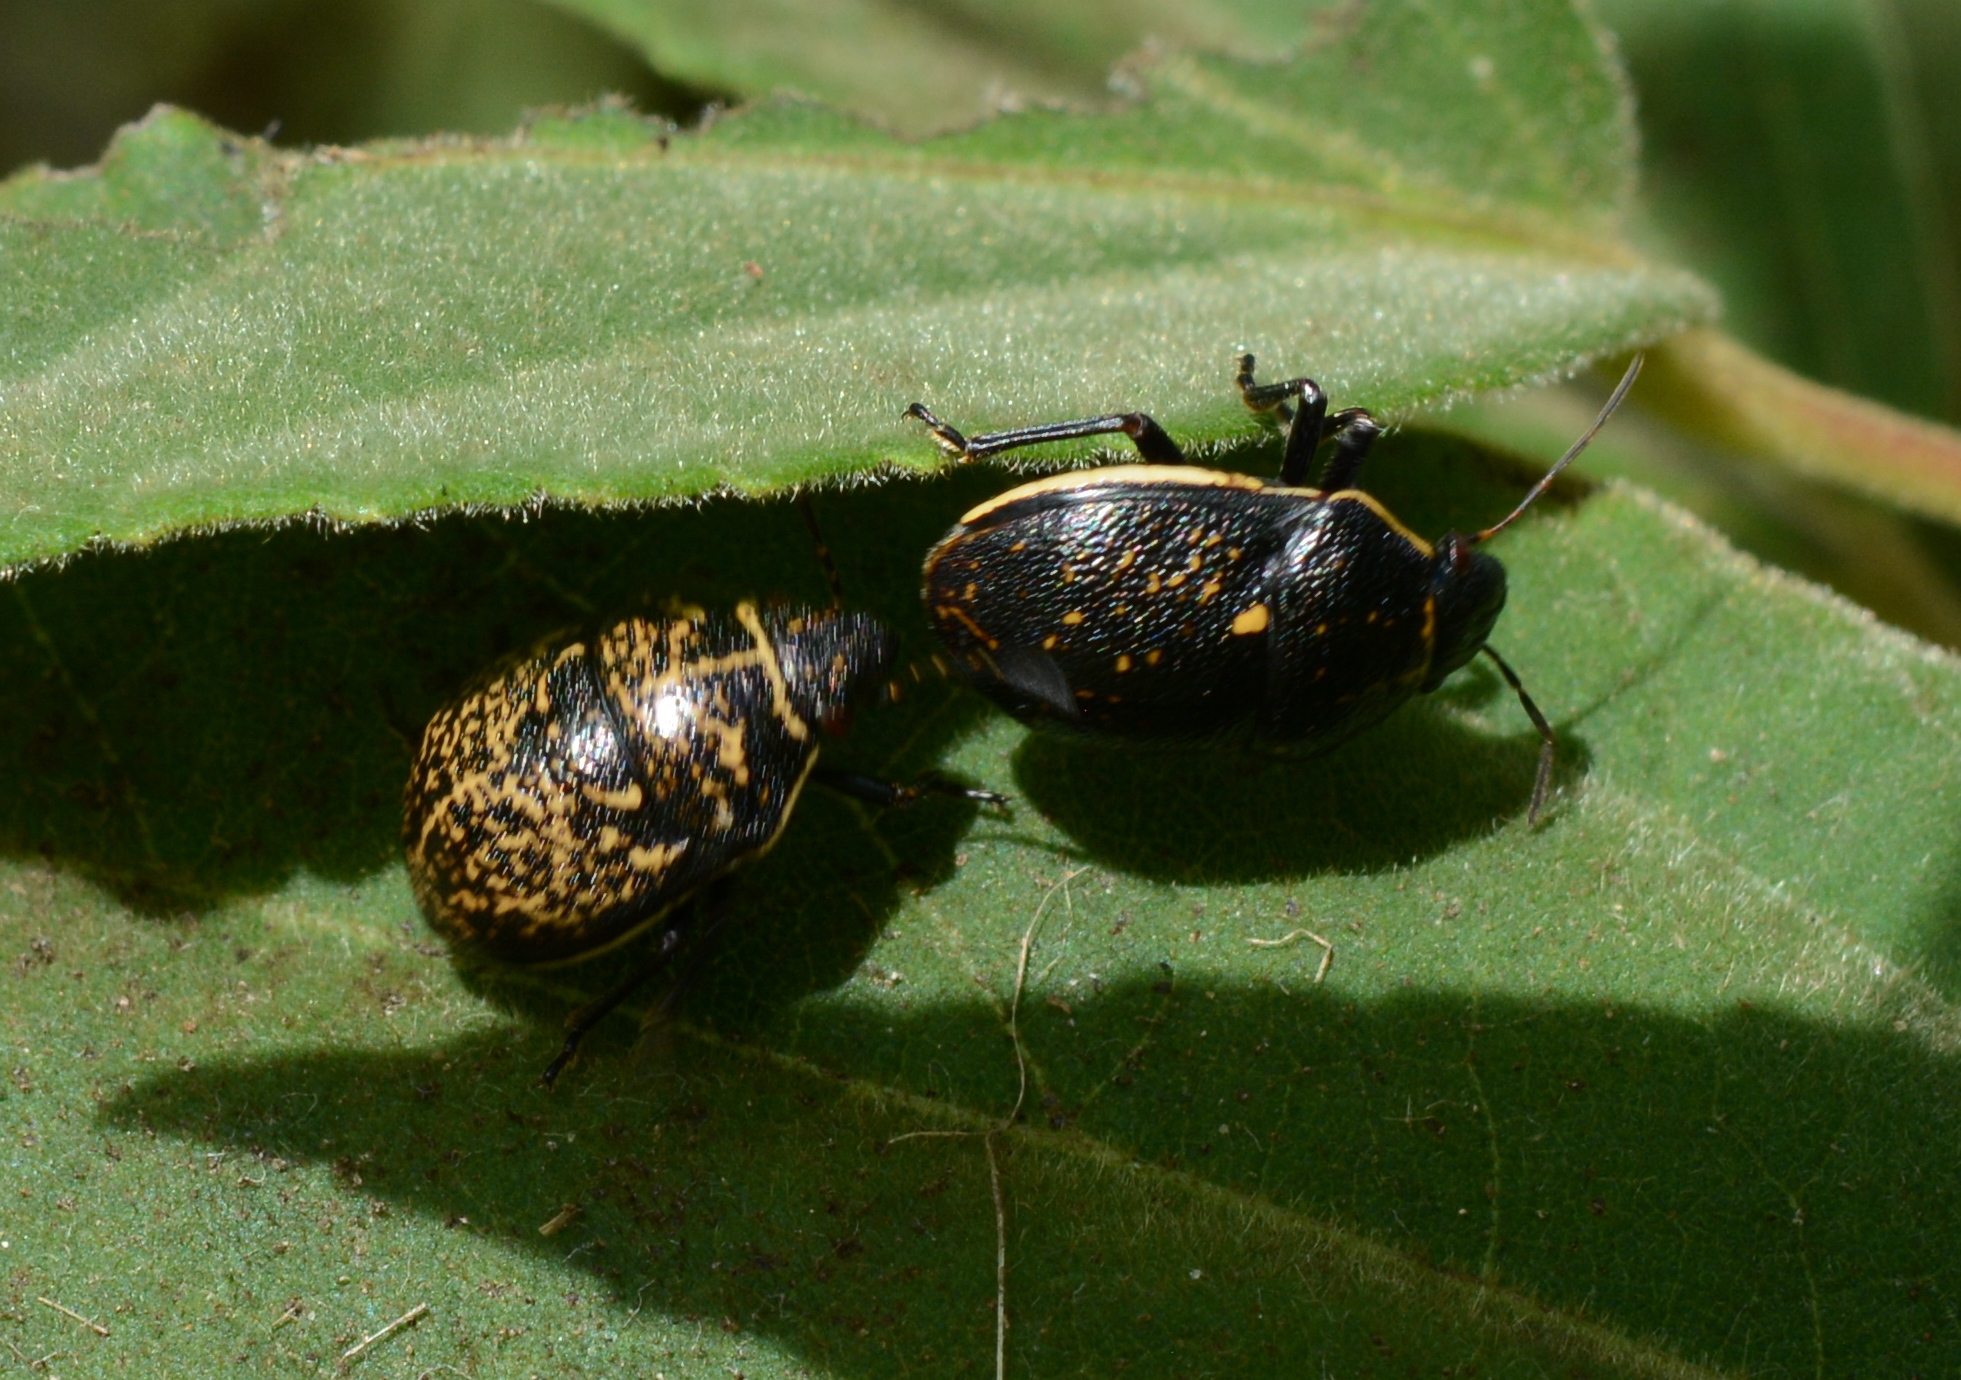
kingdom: Animalia
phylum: Arthropoda
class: Insecta
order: Hemiptera
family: Scutelleridae
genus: Orsilochides
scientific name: Orsilochides guttata
